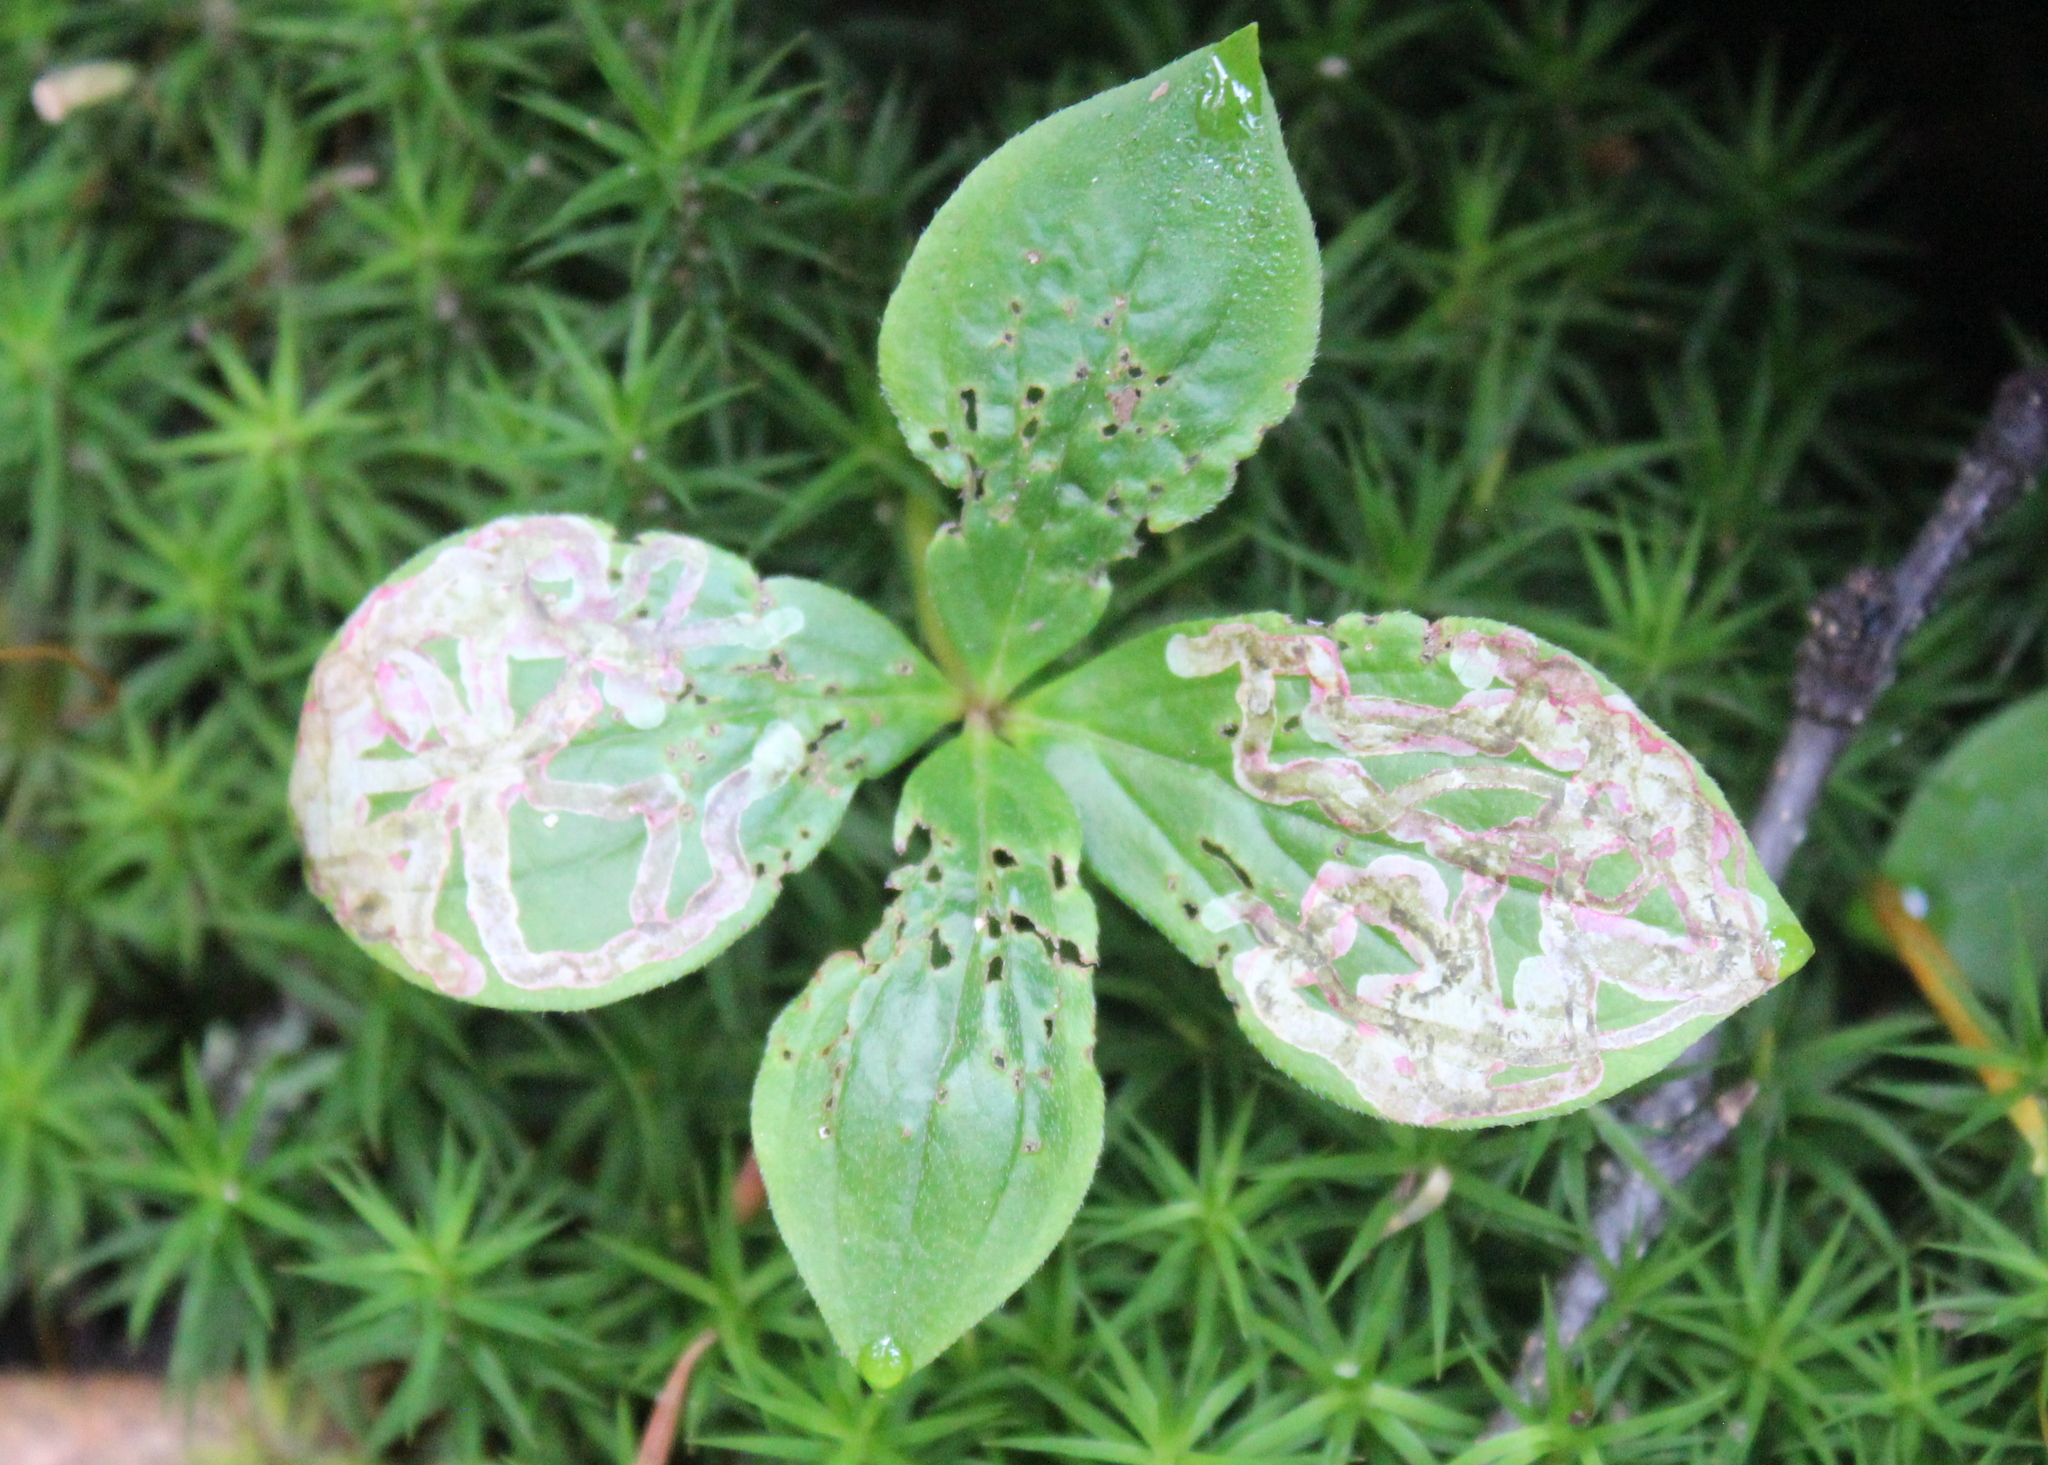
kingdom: Animalia
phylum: Arthropoda
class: Insecta
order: Diptera
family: Agromyzidae
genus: Phytomyza
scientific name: Phytomyza agromyzina
